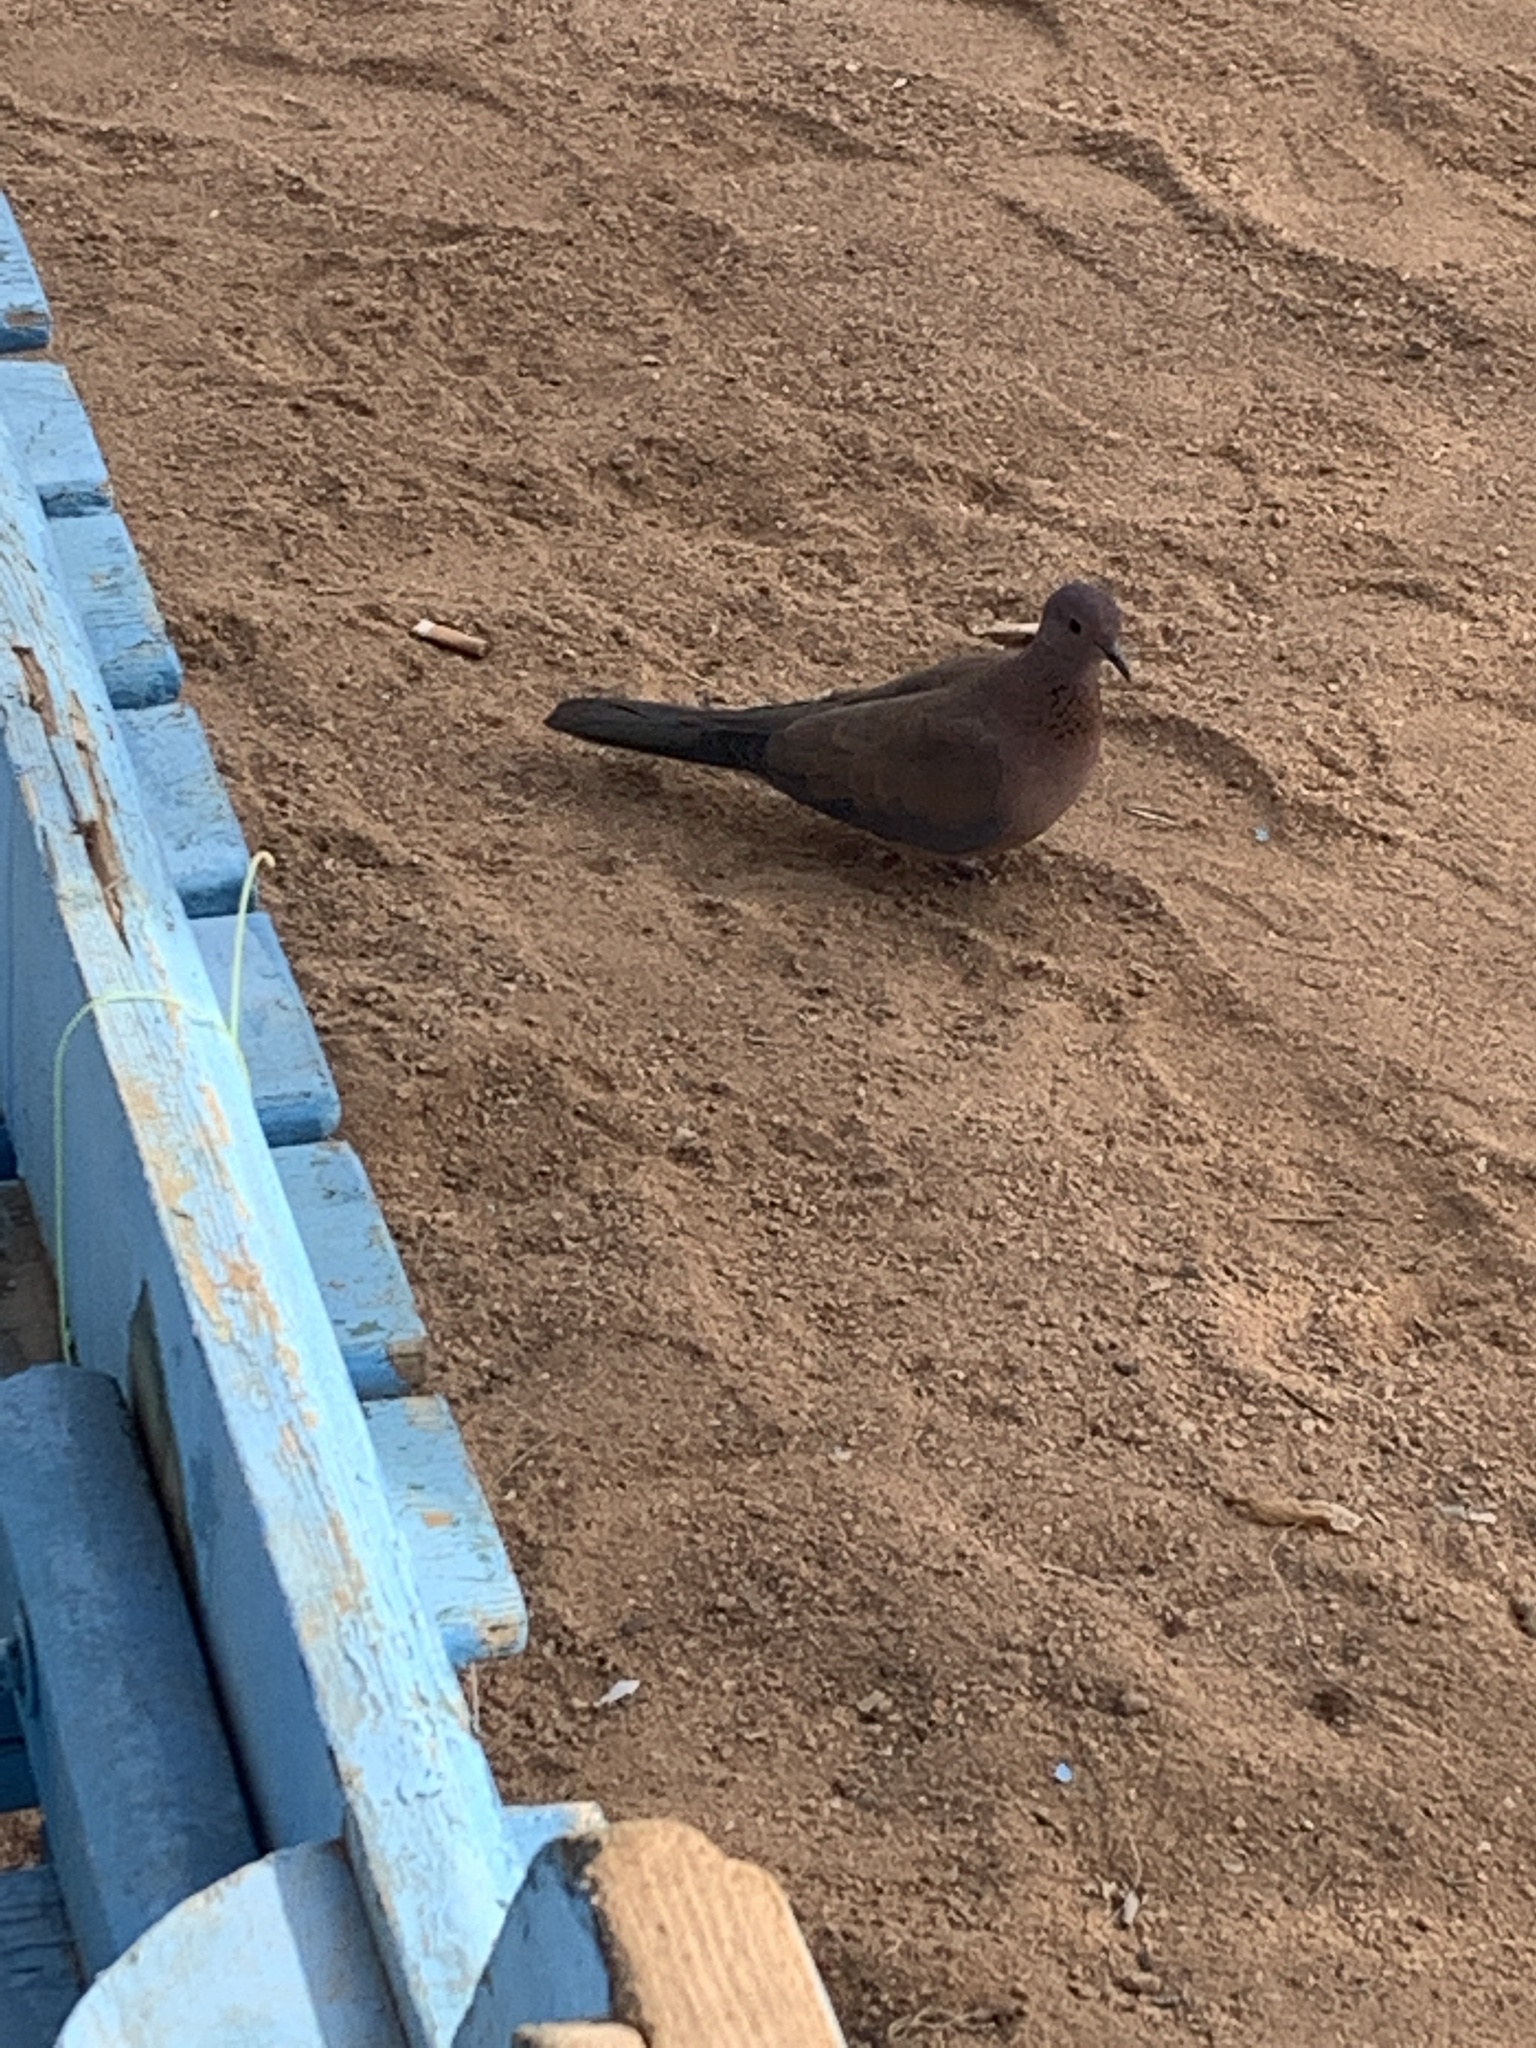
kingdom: Animalia
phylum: Chordata
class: Aves
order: Columbiformes
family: Columbidae
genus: Spilopelia
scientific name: Spilopelia senegalensis
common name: Laughing dove
